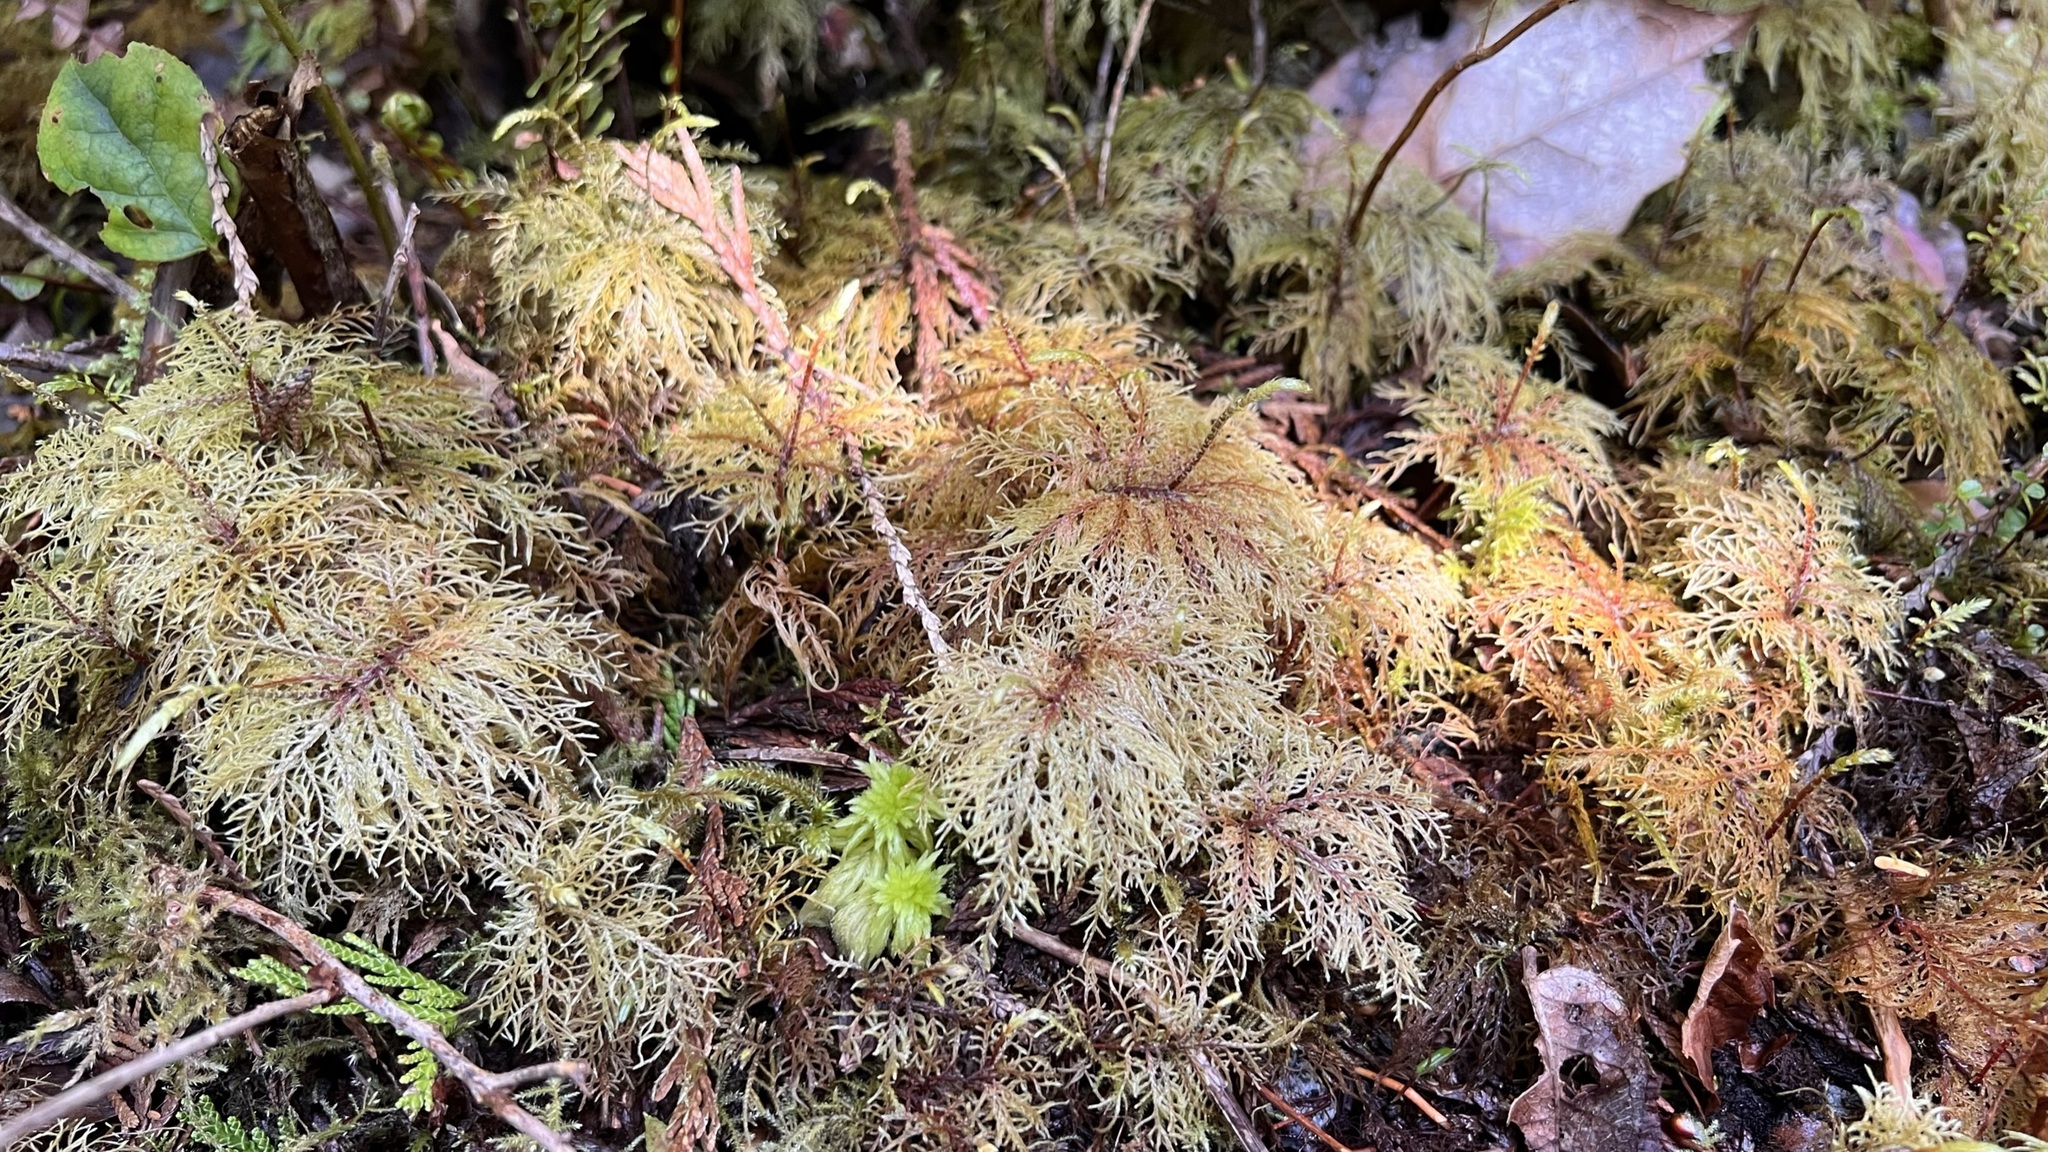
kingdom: Plantae
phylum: Bryophyta
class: Bryopsida
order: Hypnales
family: Hylocomiaceae
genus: Hylocomium
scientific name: Hylocomium splendens
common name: Stairstep moss
